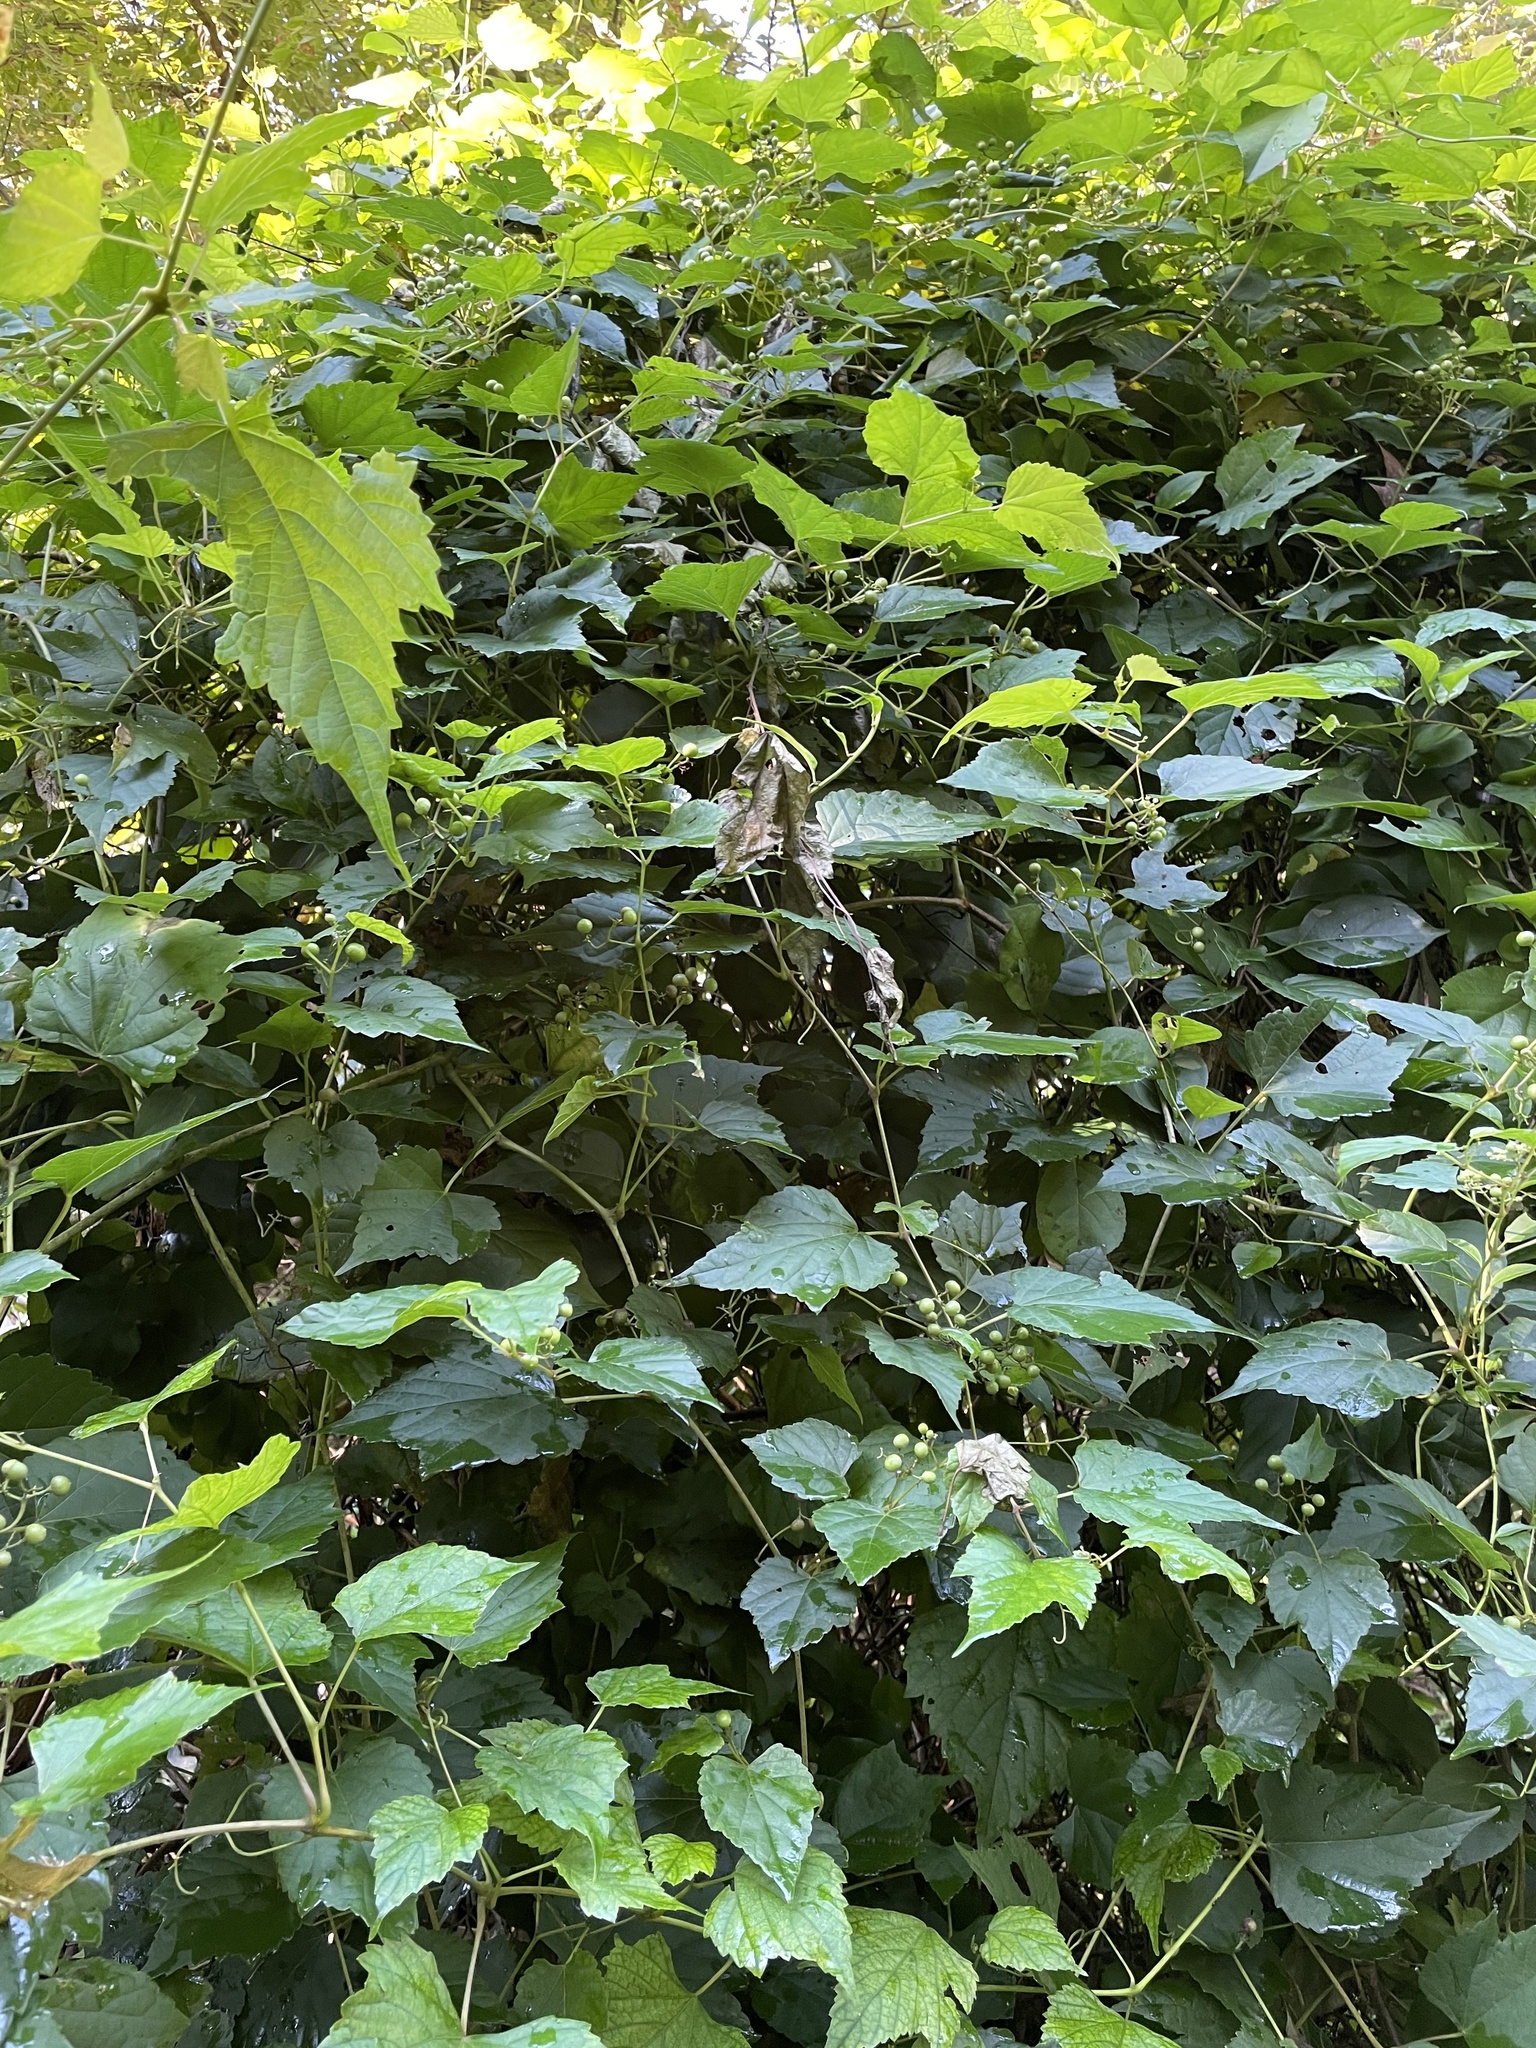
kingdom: Plantae
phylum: Tracheophyta
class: Magnoliopsida
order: Vitales
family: Vitaceae
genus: Ampelopsis
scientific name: Ampelopsis glandulosa
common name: Amur peppervine
